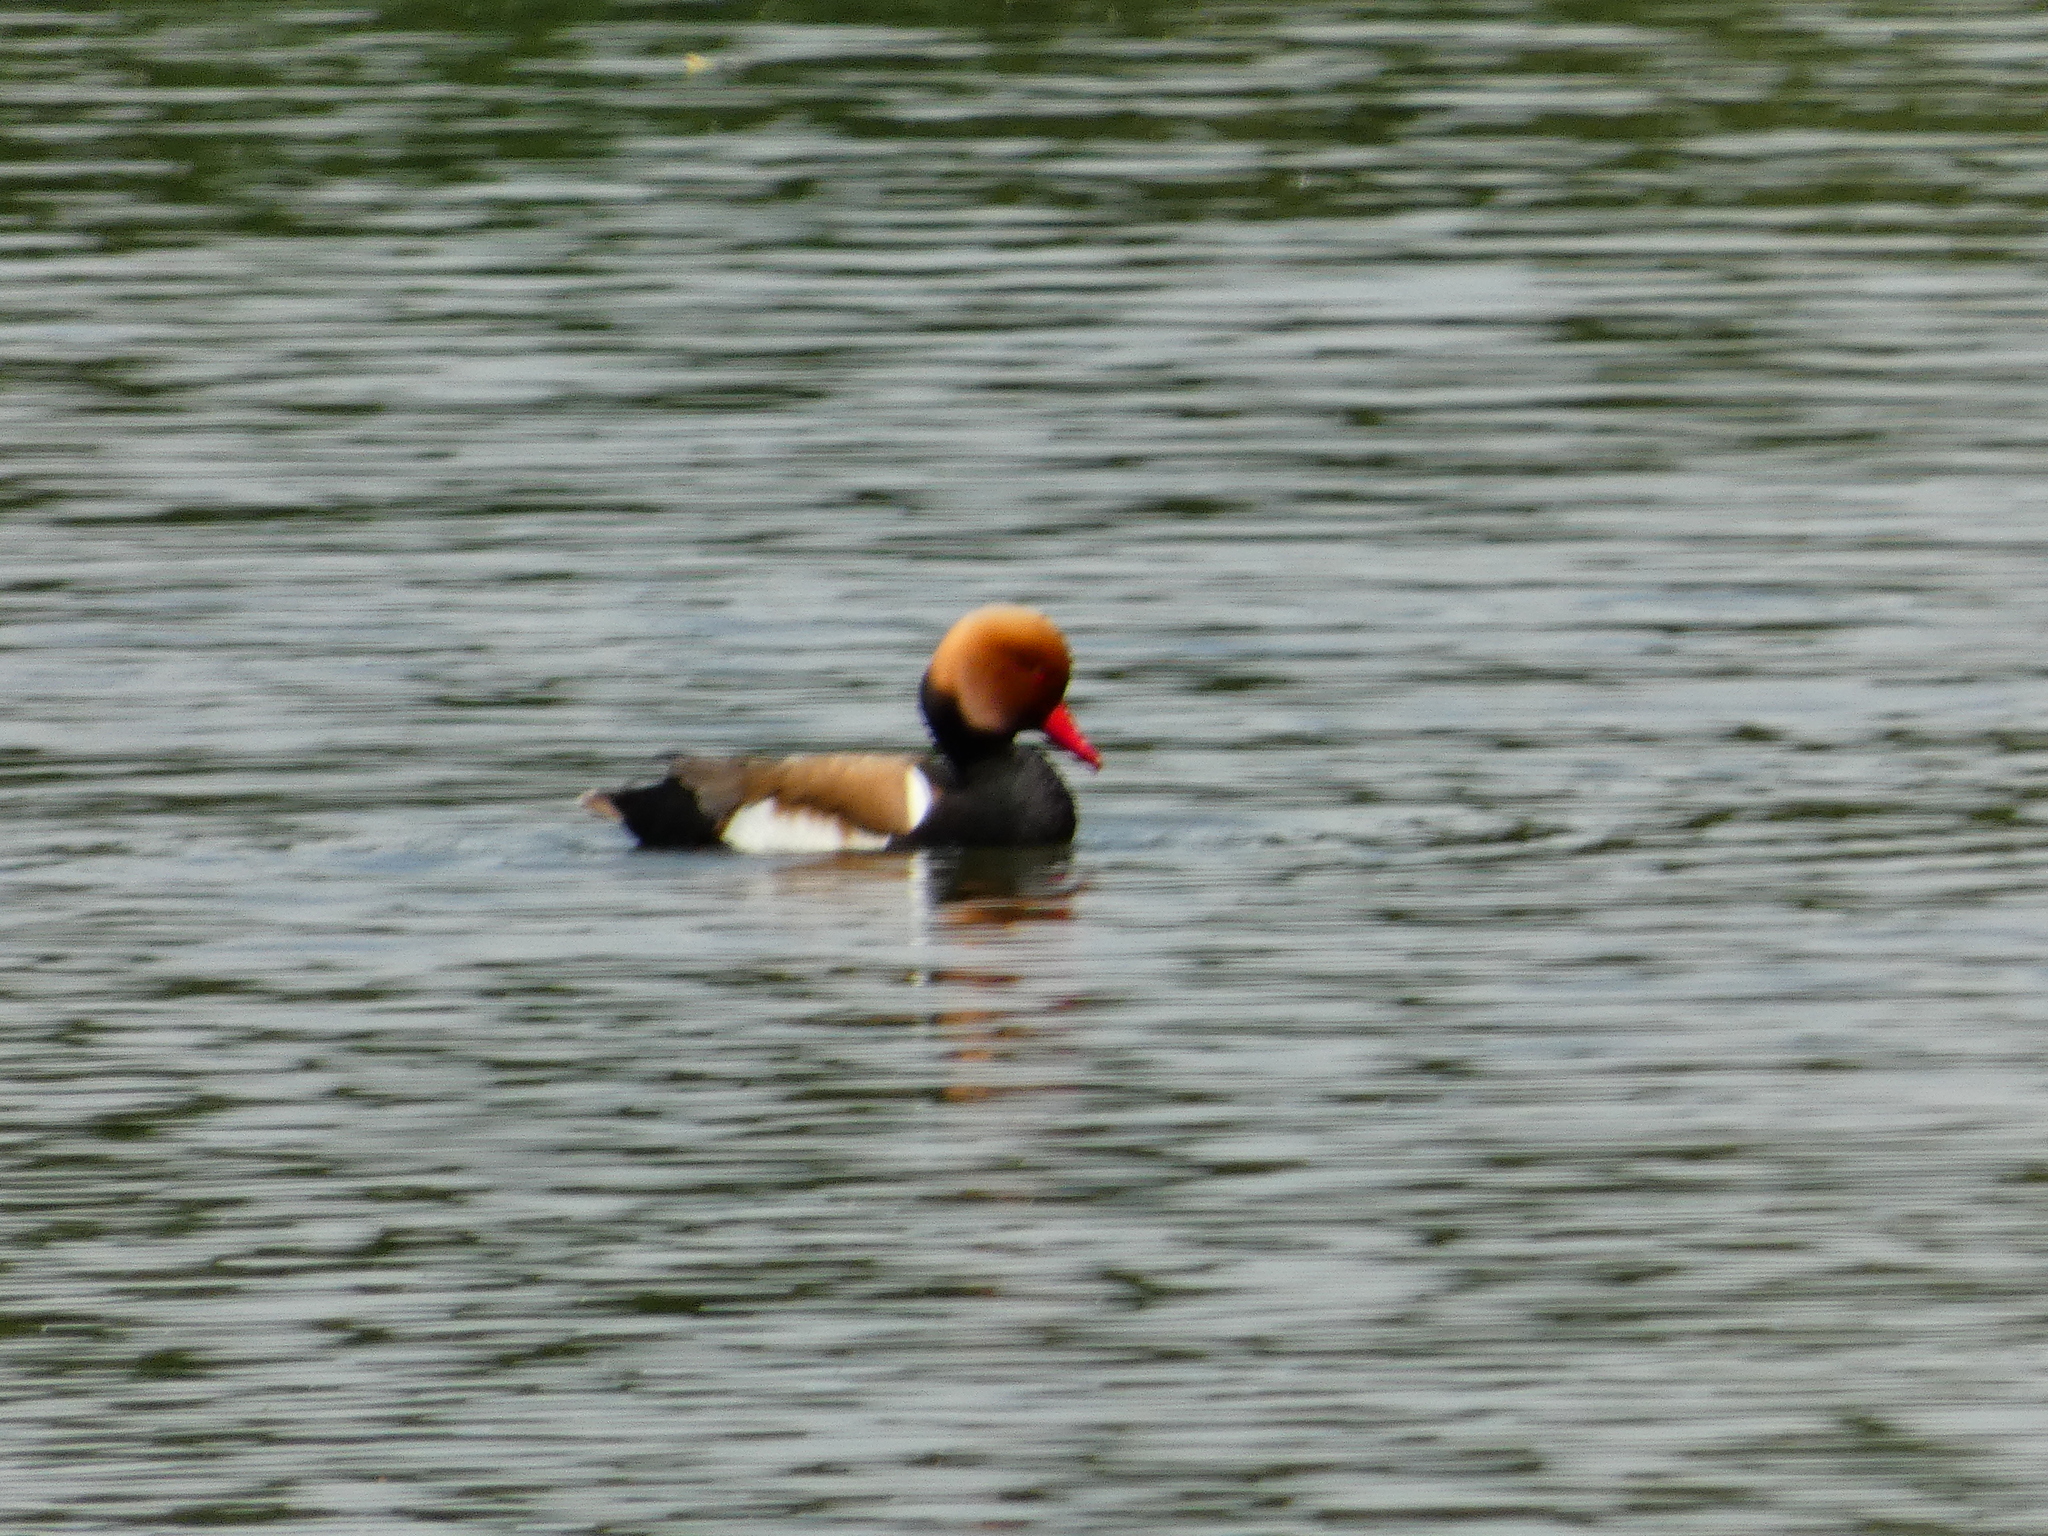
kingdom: Animalia
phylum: Chordata
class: Aves
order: Anseriformes
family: Anatidae
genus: Netta
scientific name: Netta rufina
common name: Red-crested pochard
